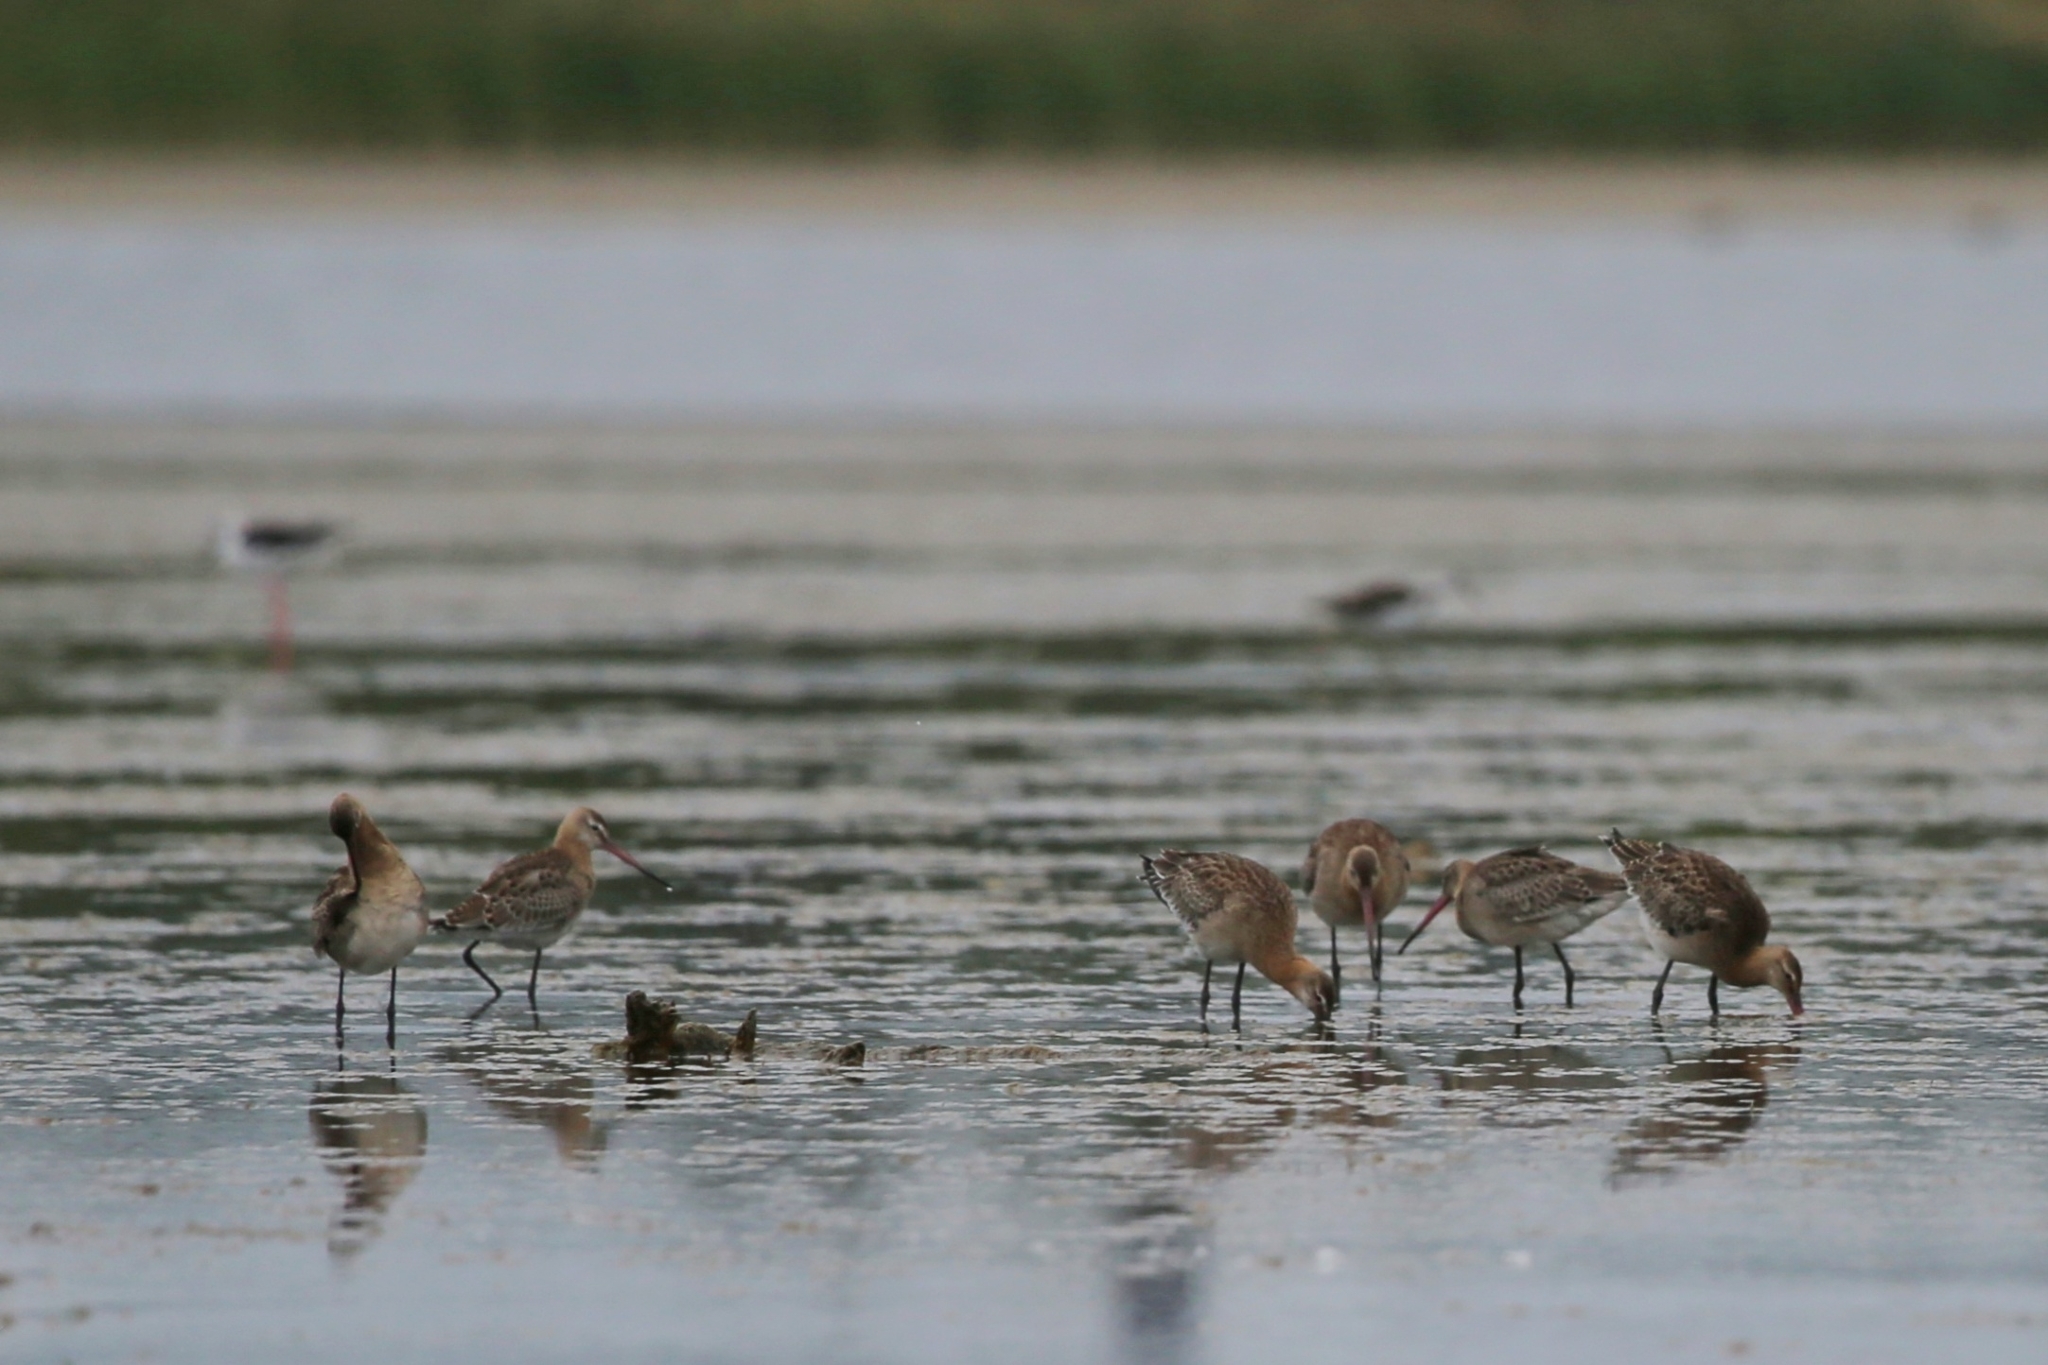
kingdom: Animalia
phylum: Chordata
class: Aves
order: Charadriiformes
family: Scolopacidae
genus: Limosa
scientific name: Limosa limosa
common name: Black-tailed godwit
